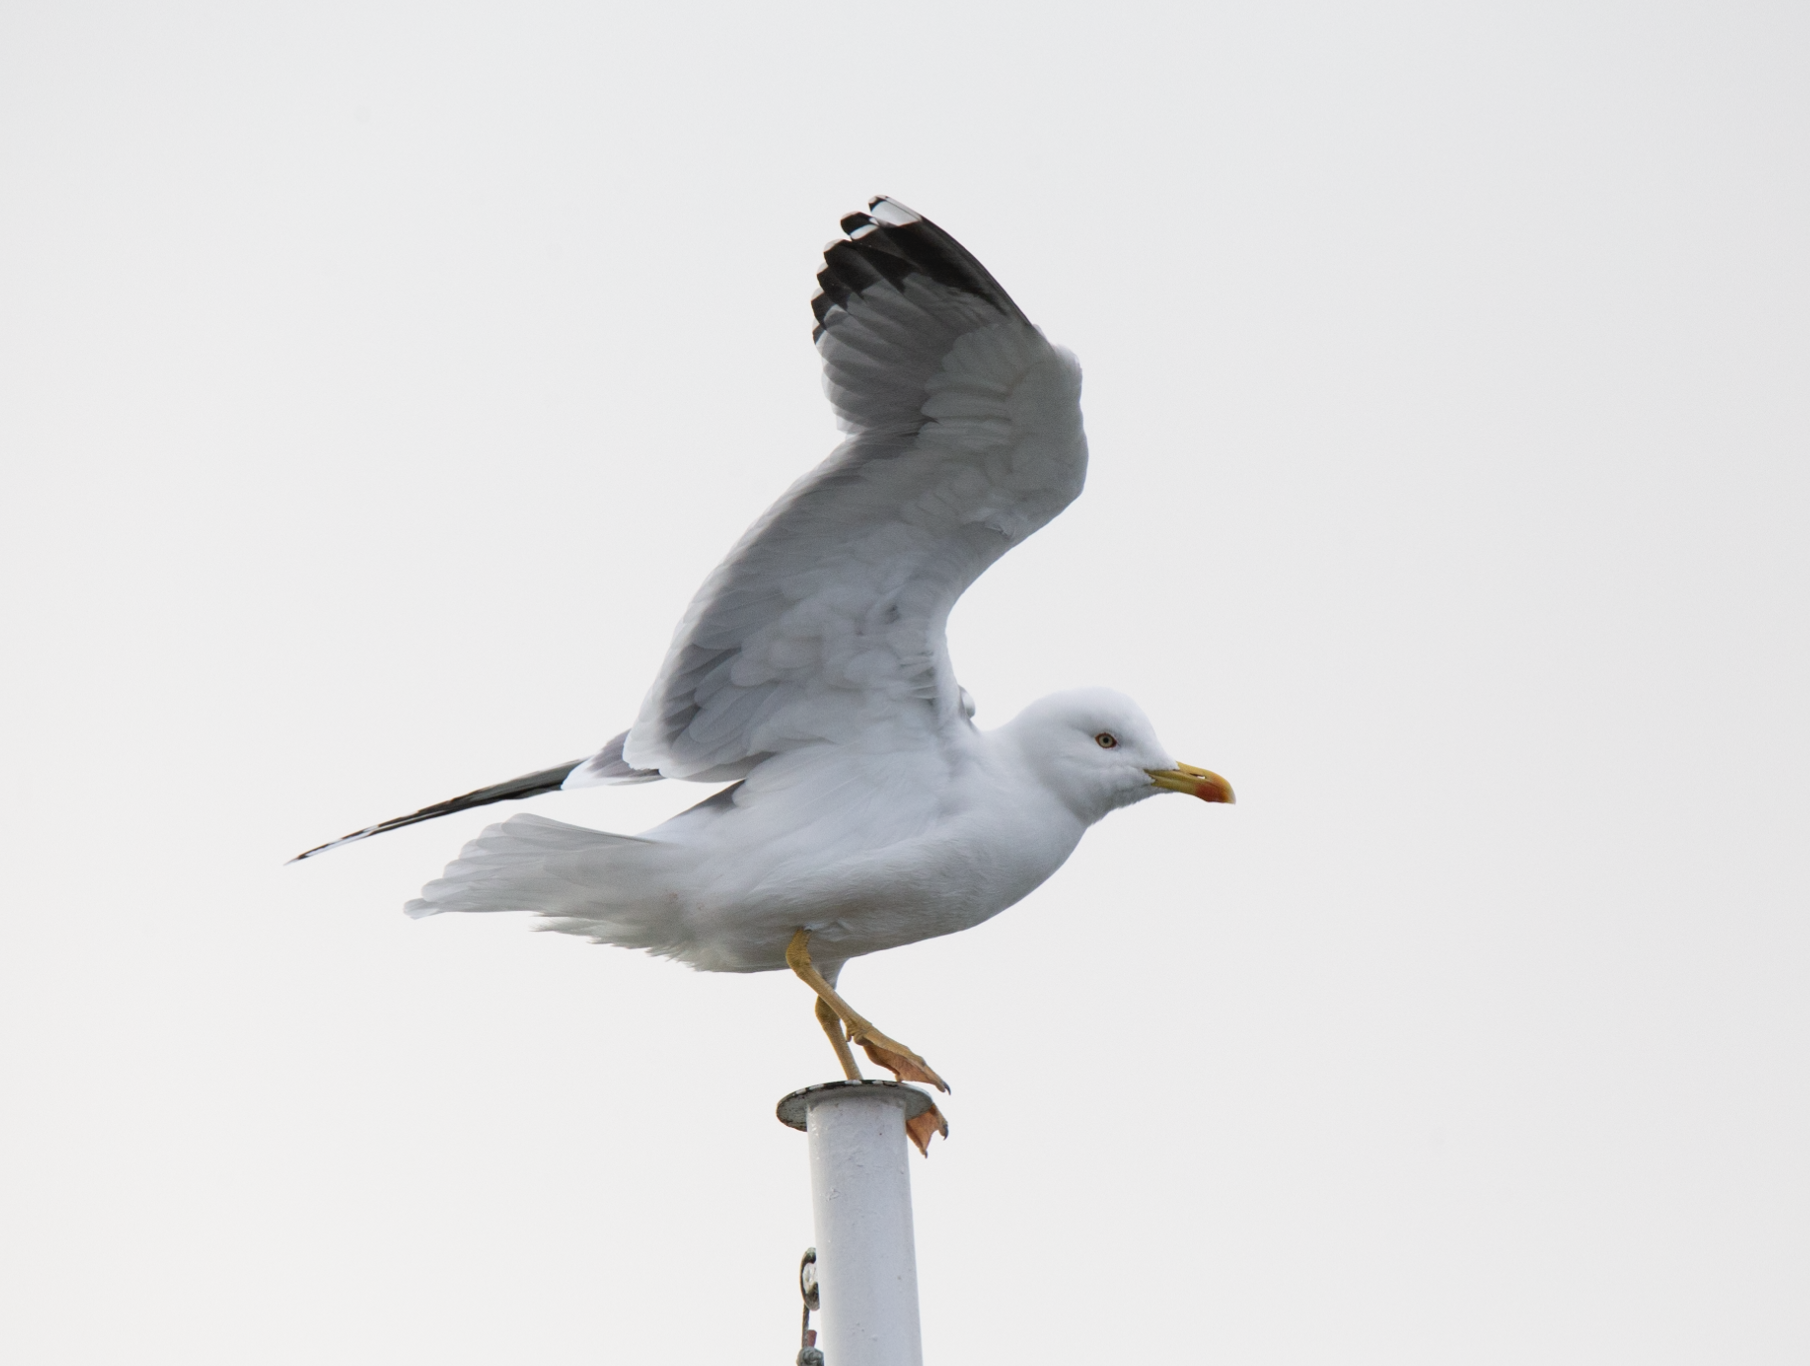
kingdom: Animalia
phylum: Chordata
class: Aves
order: Charadriiformes
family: Laridae
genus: Larus
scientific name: Larus michahellis
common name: Yellow-legged gull
